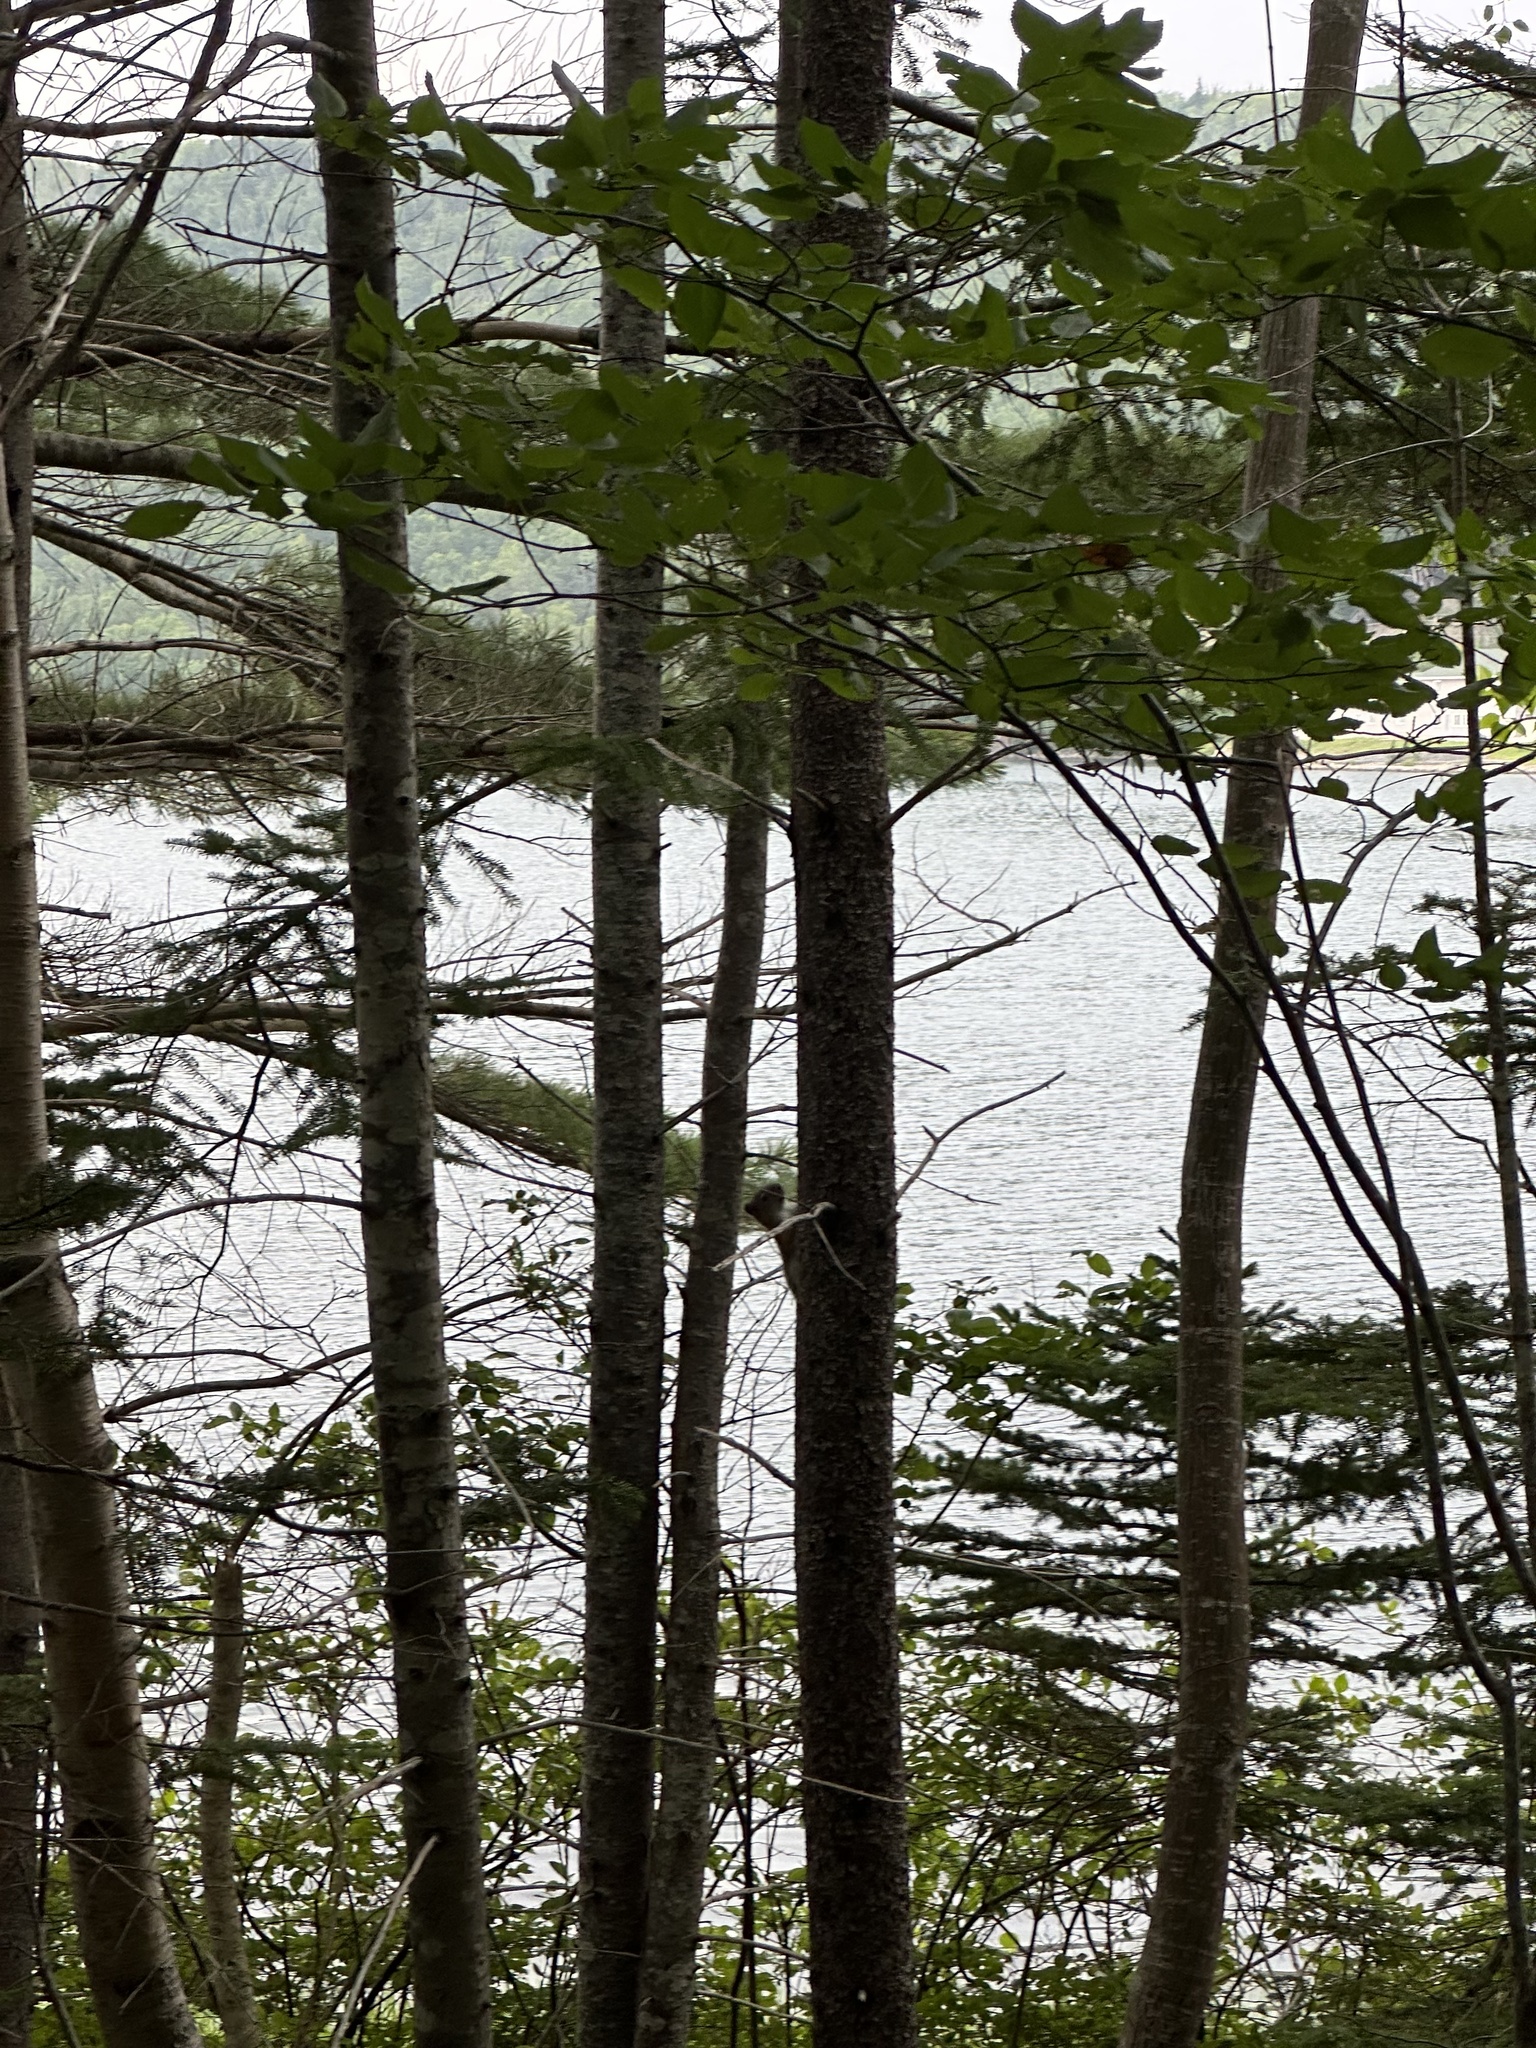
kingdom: Animalia
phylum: Chordata
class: Mammalia
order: Rodentia
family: Sciuridae
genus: Tamiasciurus
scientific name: Tamiasciurus hudsonicus
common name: Red squirrel
